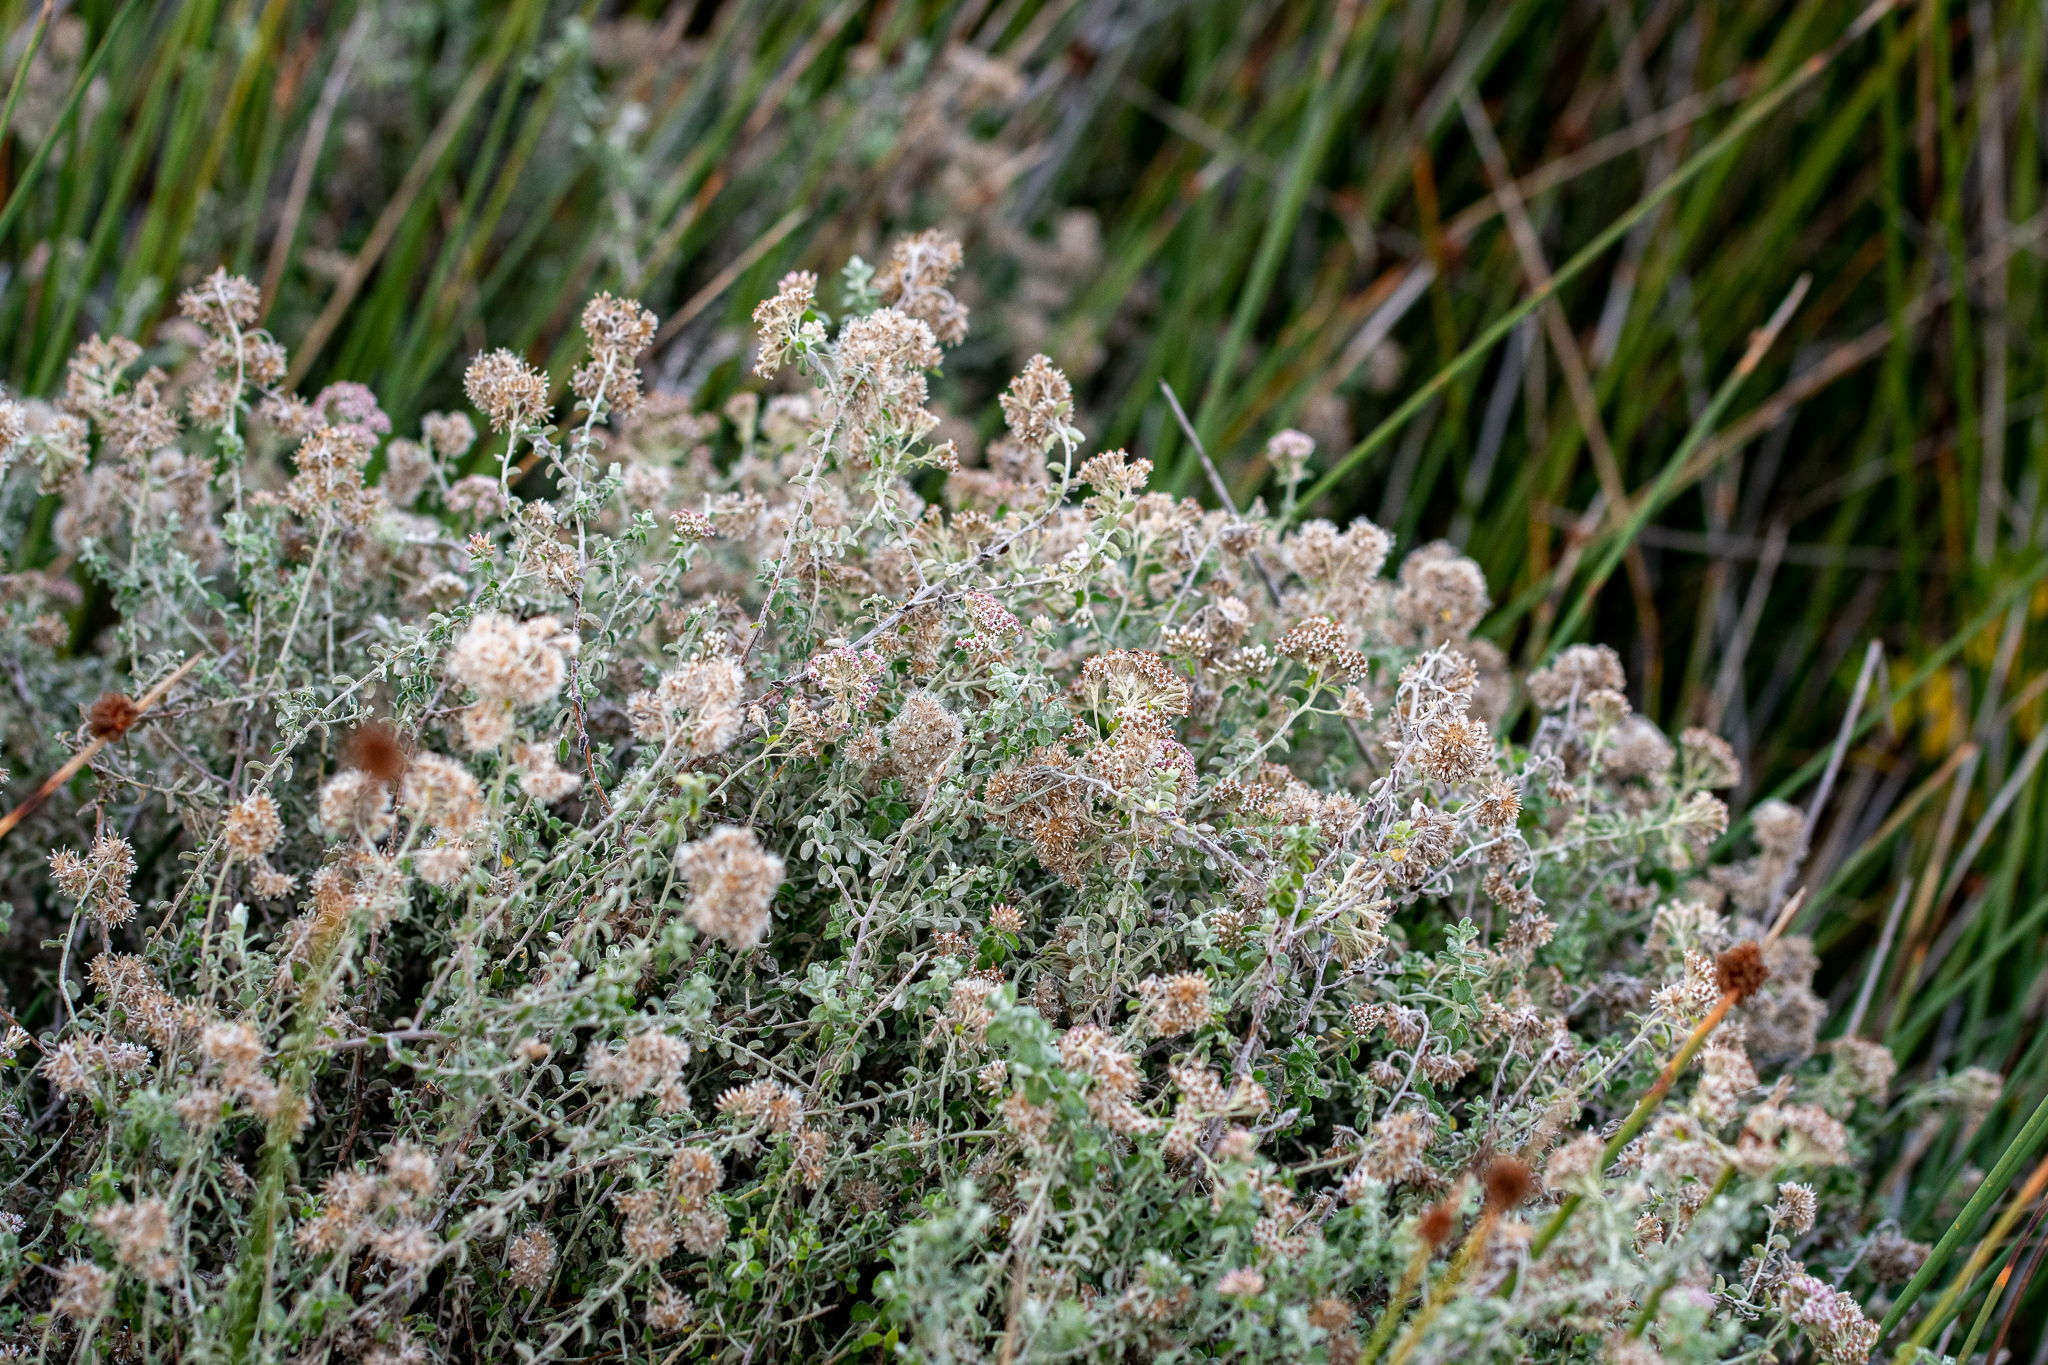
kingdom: Plantae
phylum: Tracheophyta
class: Magnoliopsida
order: Asterales
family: Asteraceae
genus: Plecostachys
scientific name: Plecostachys serpyllifolia
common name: Petite licorice
